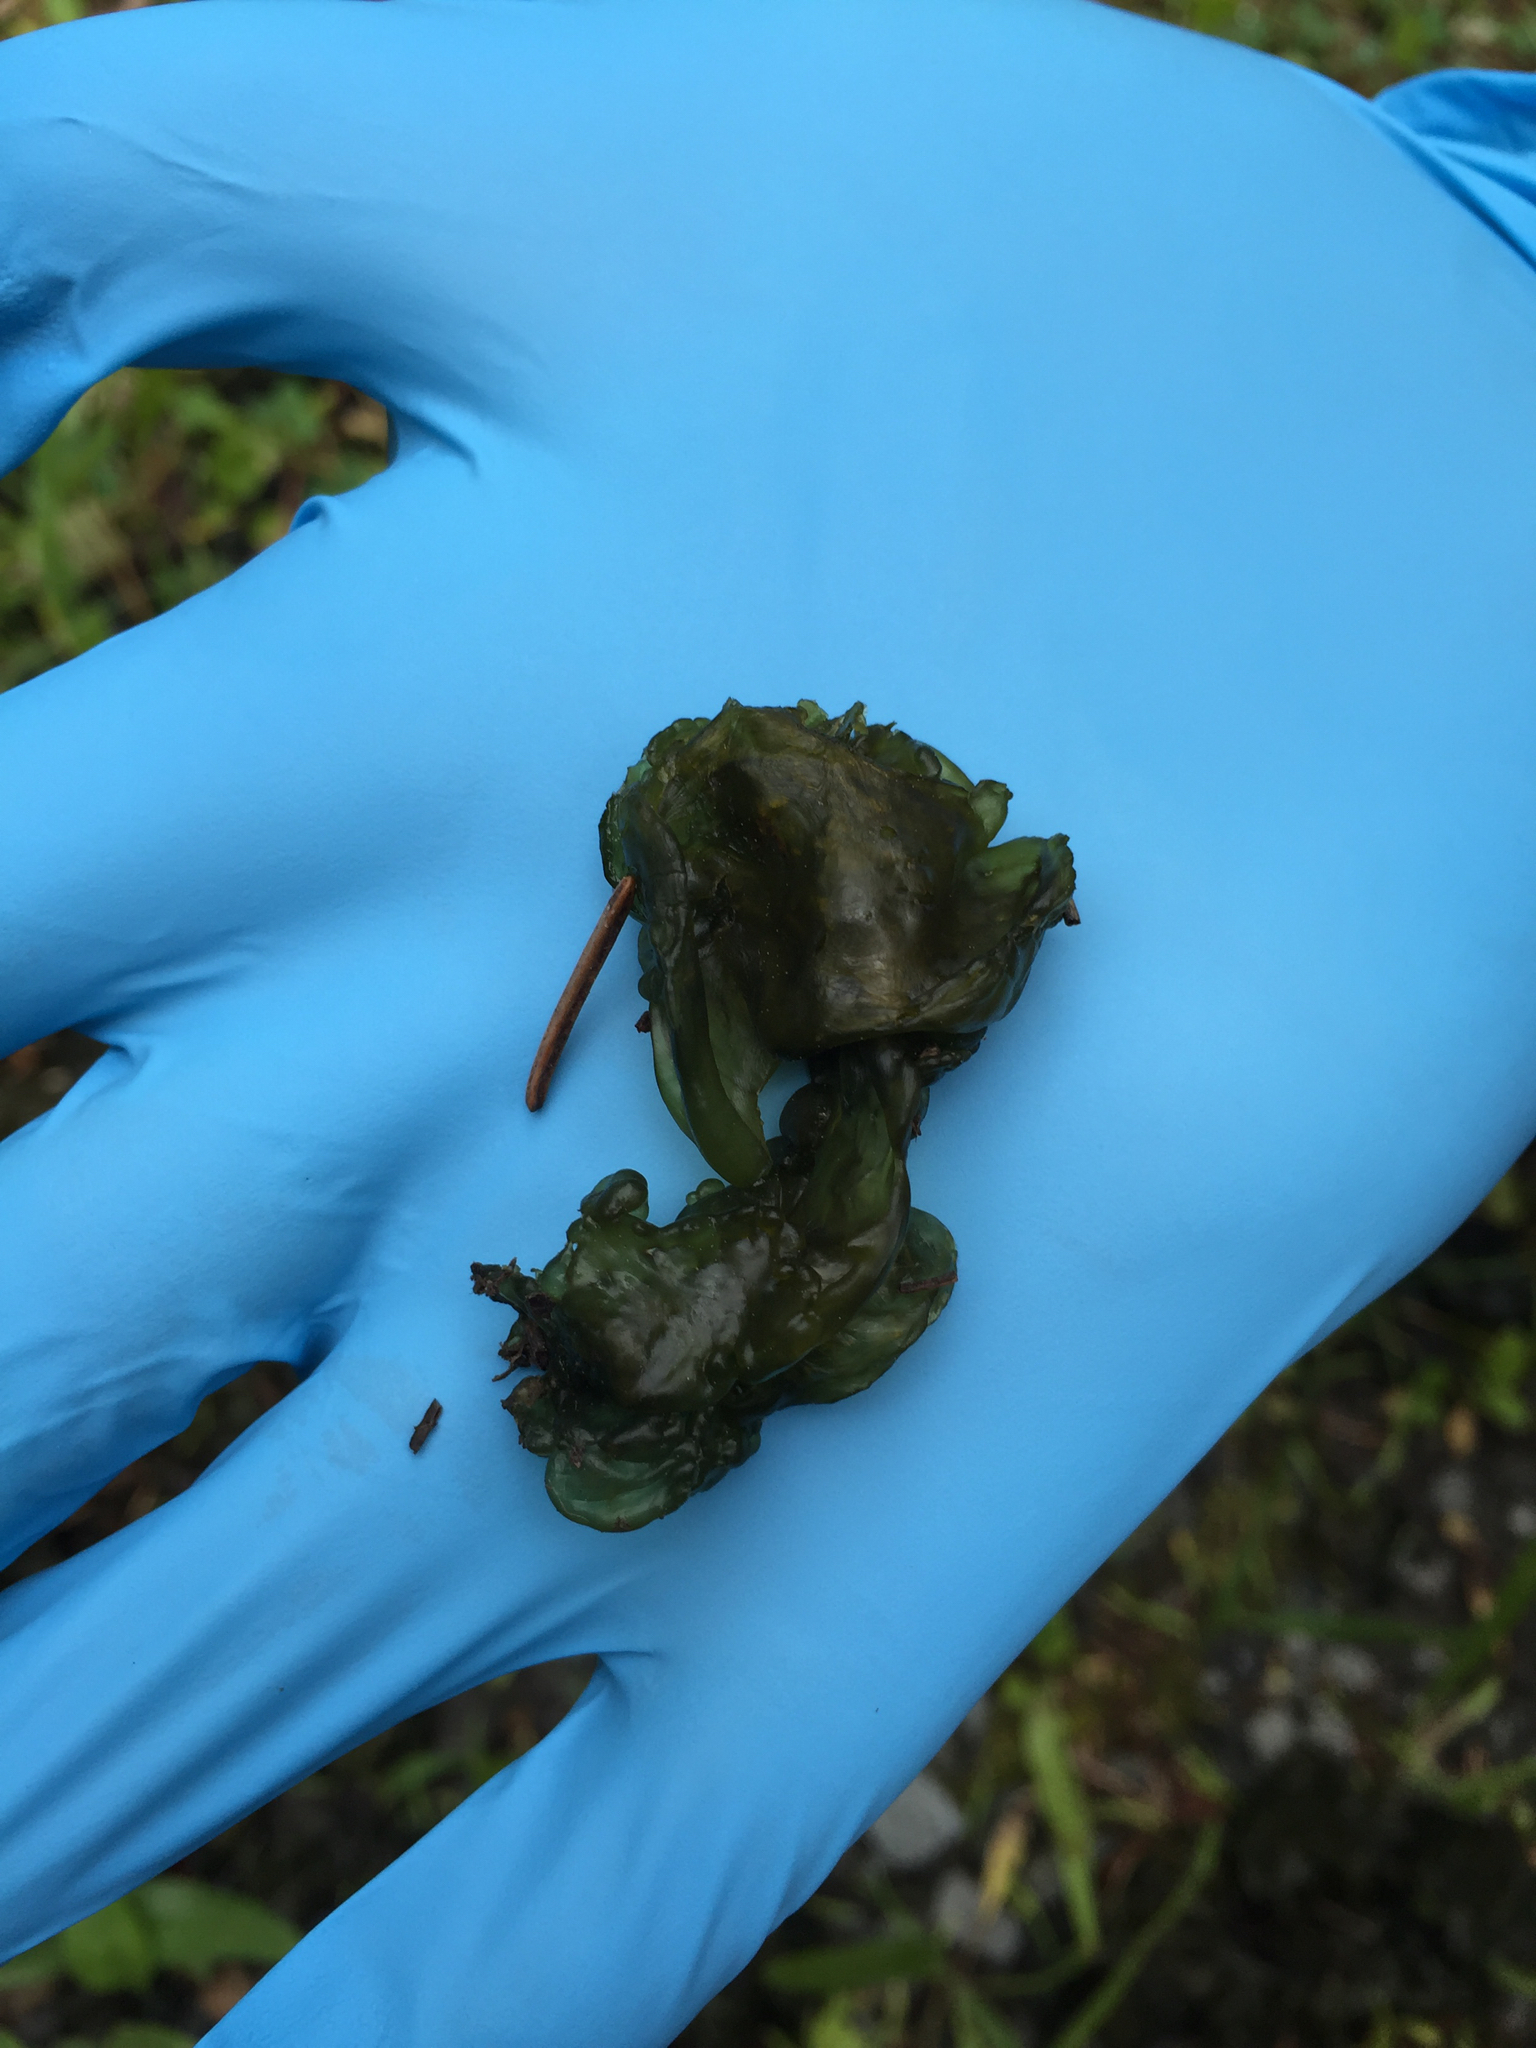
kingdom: Bacteria
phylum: Cyanobacteria
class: Cyanobacteriia
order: Cyanobacteriales
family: Nostocaceae
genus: Nostoc
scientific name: Nostoc commune
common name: Star jelly
